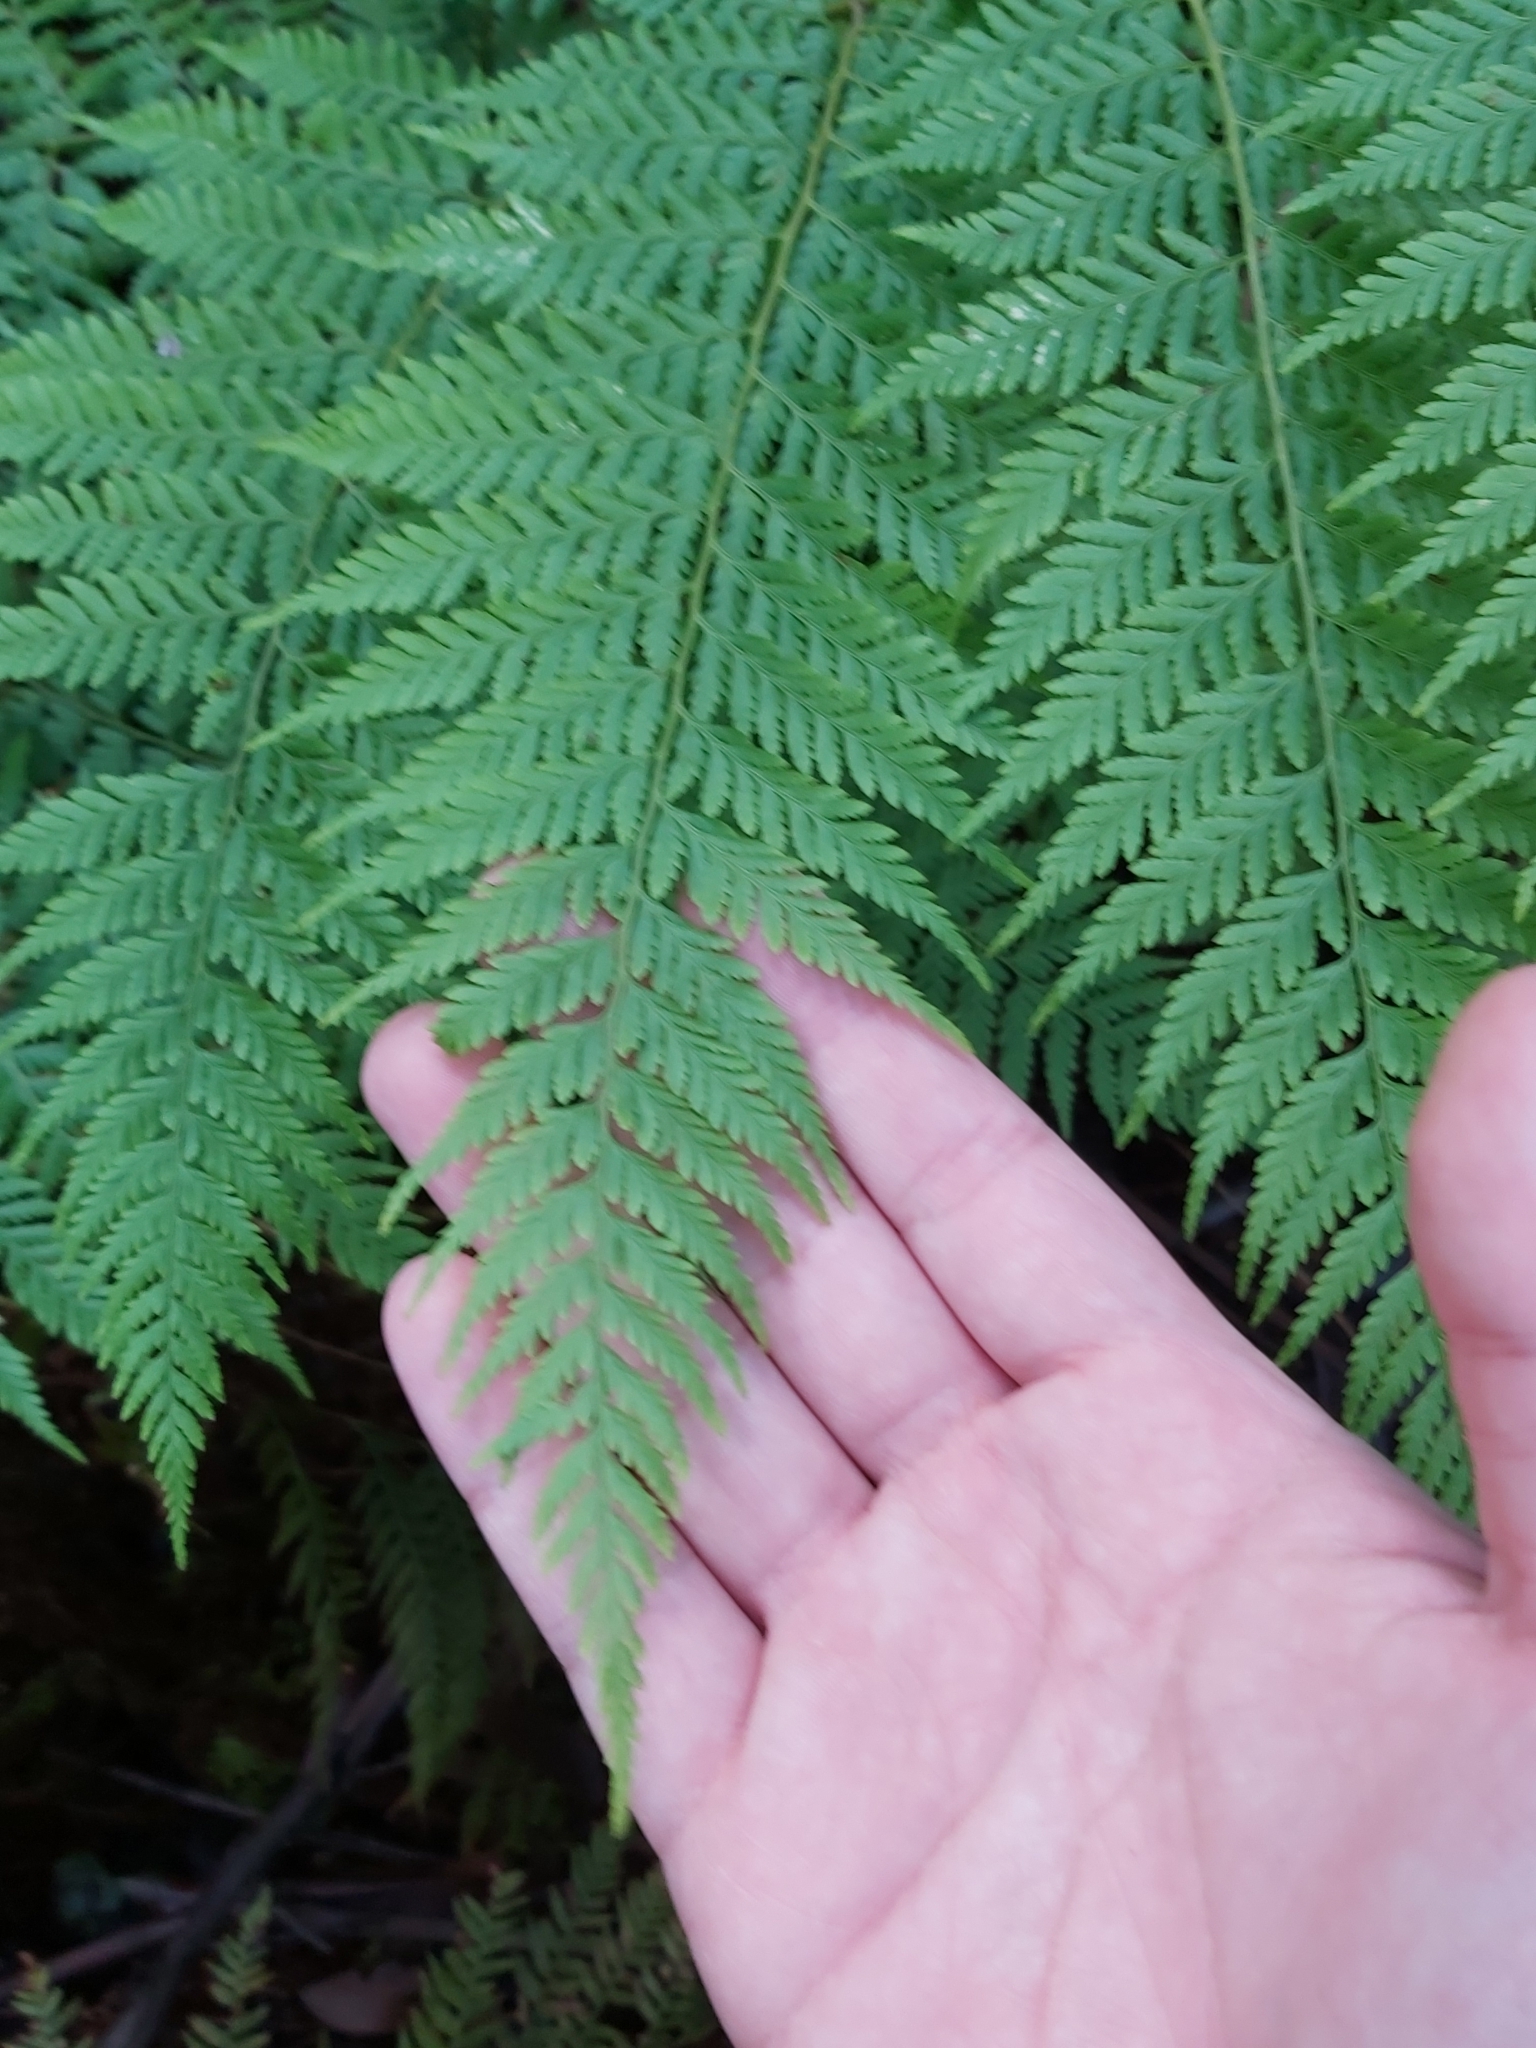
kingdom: Plantae
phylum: Tracheophyta
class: Polypodiopsida
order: Cyatheales
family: Dicksoniaceae
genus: Calochlaena
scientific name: Calochlaena dubia
